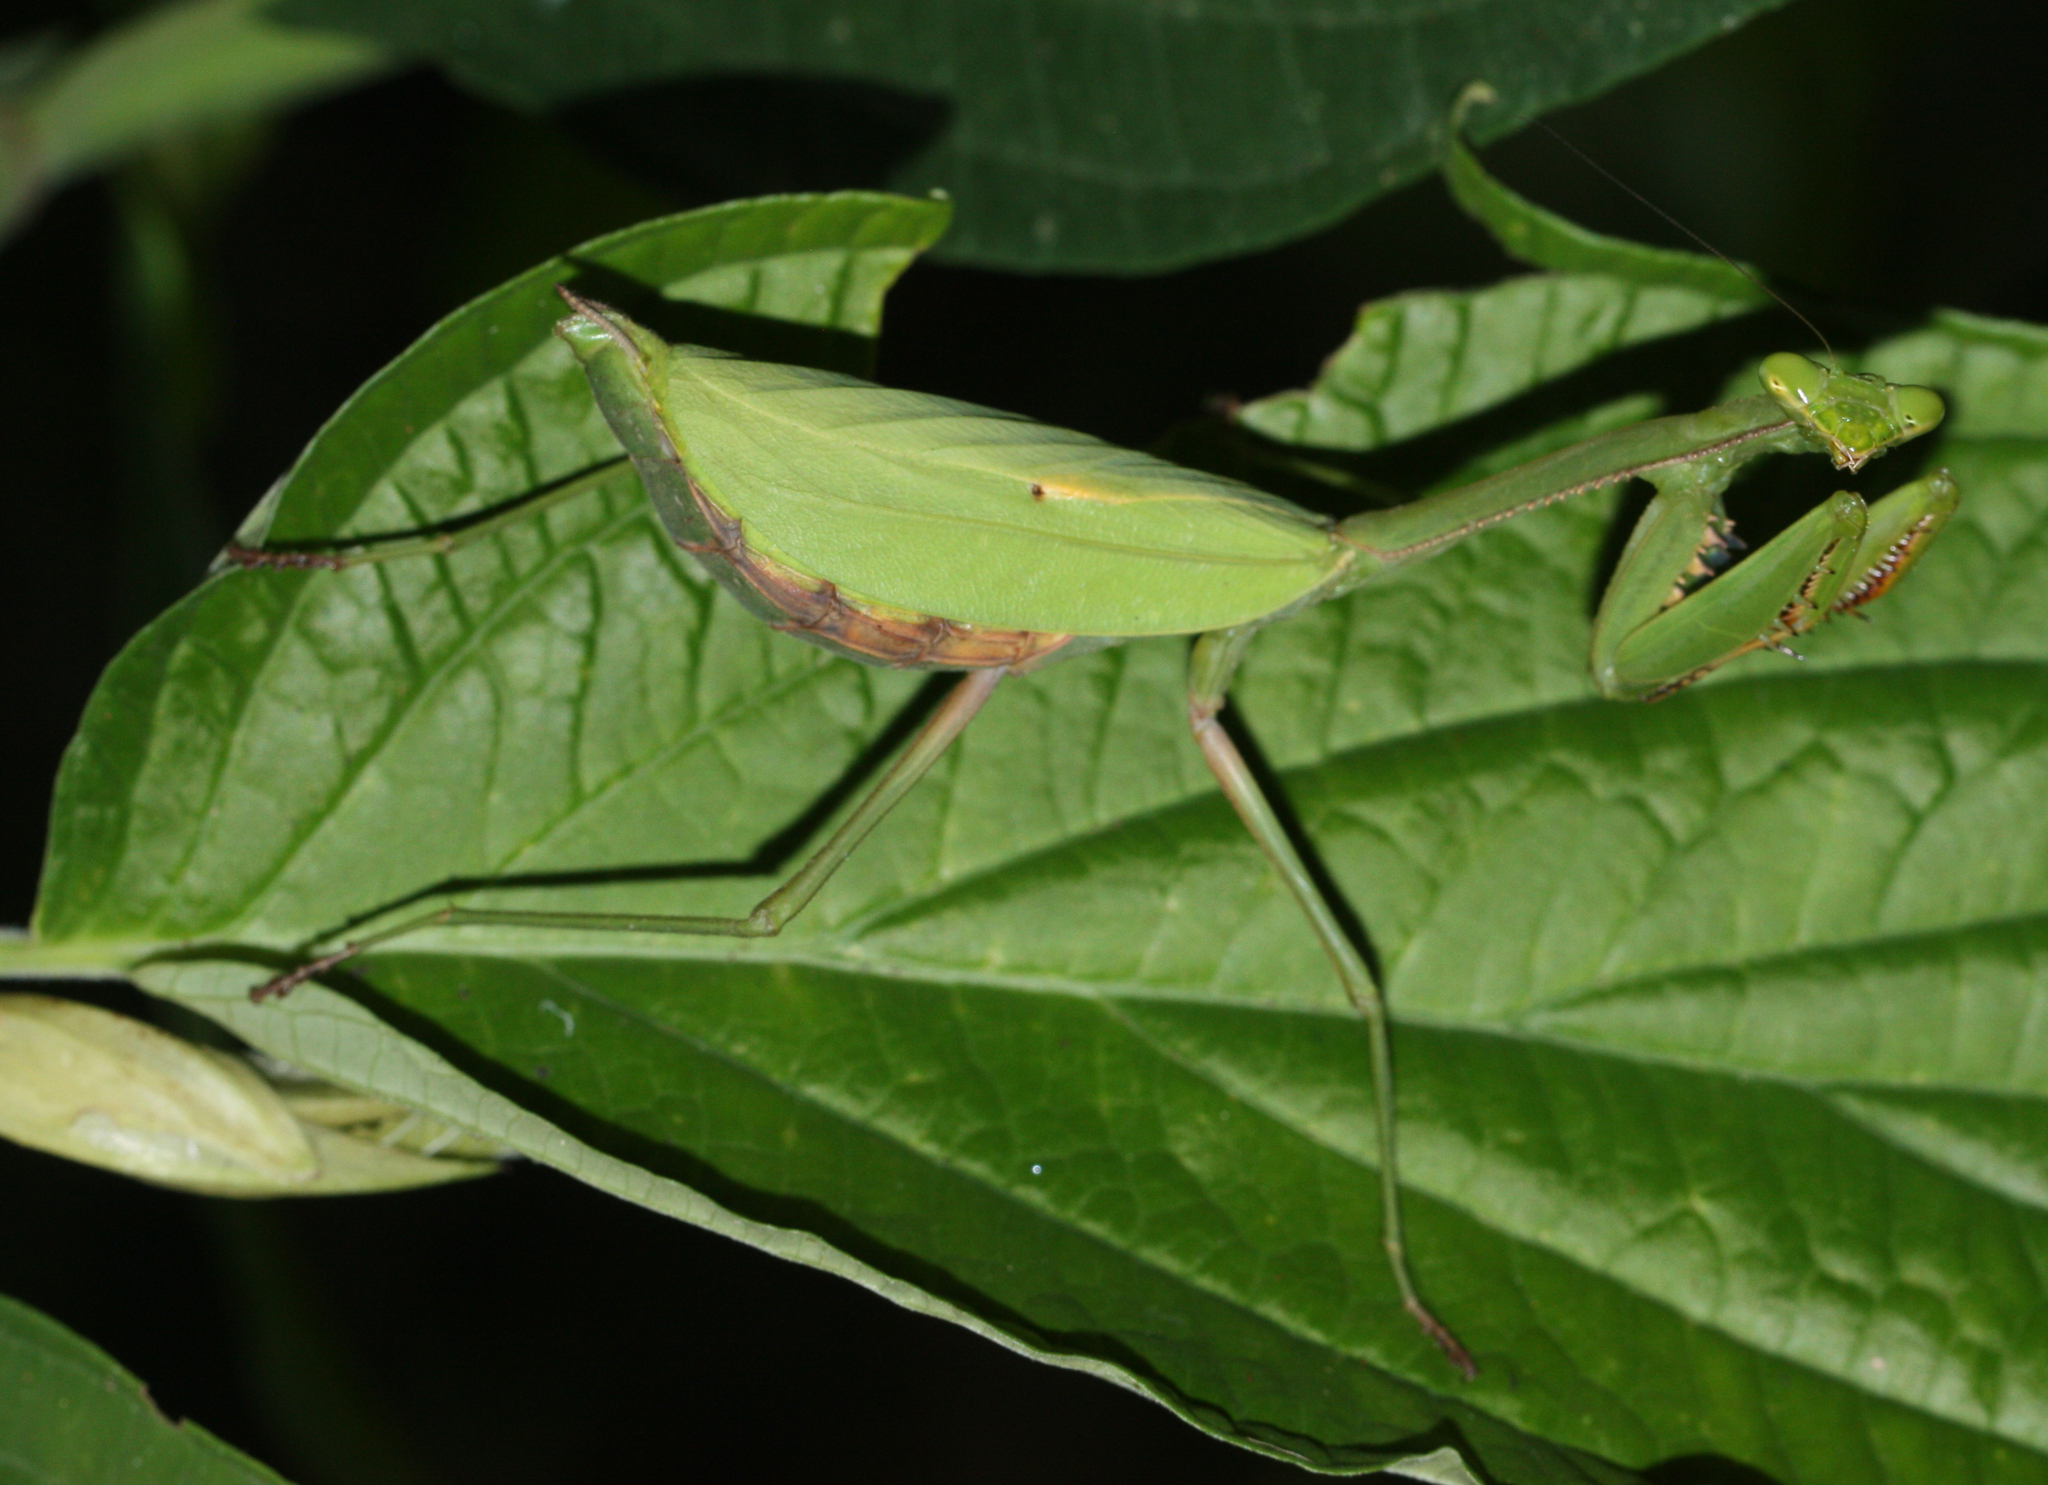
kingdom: Animalia
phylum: Arthropoda
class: Insecta
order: Mantodea
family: Mantidae
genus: Stagmomantis
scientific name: Stagmomantis theophila
